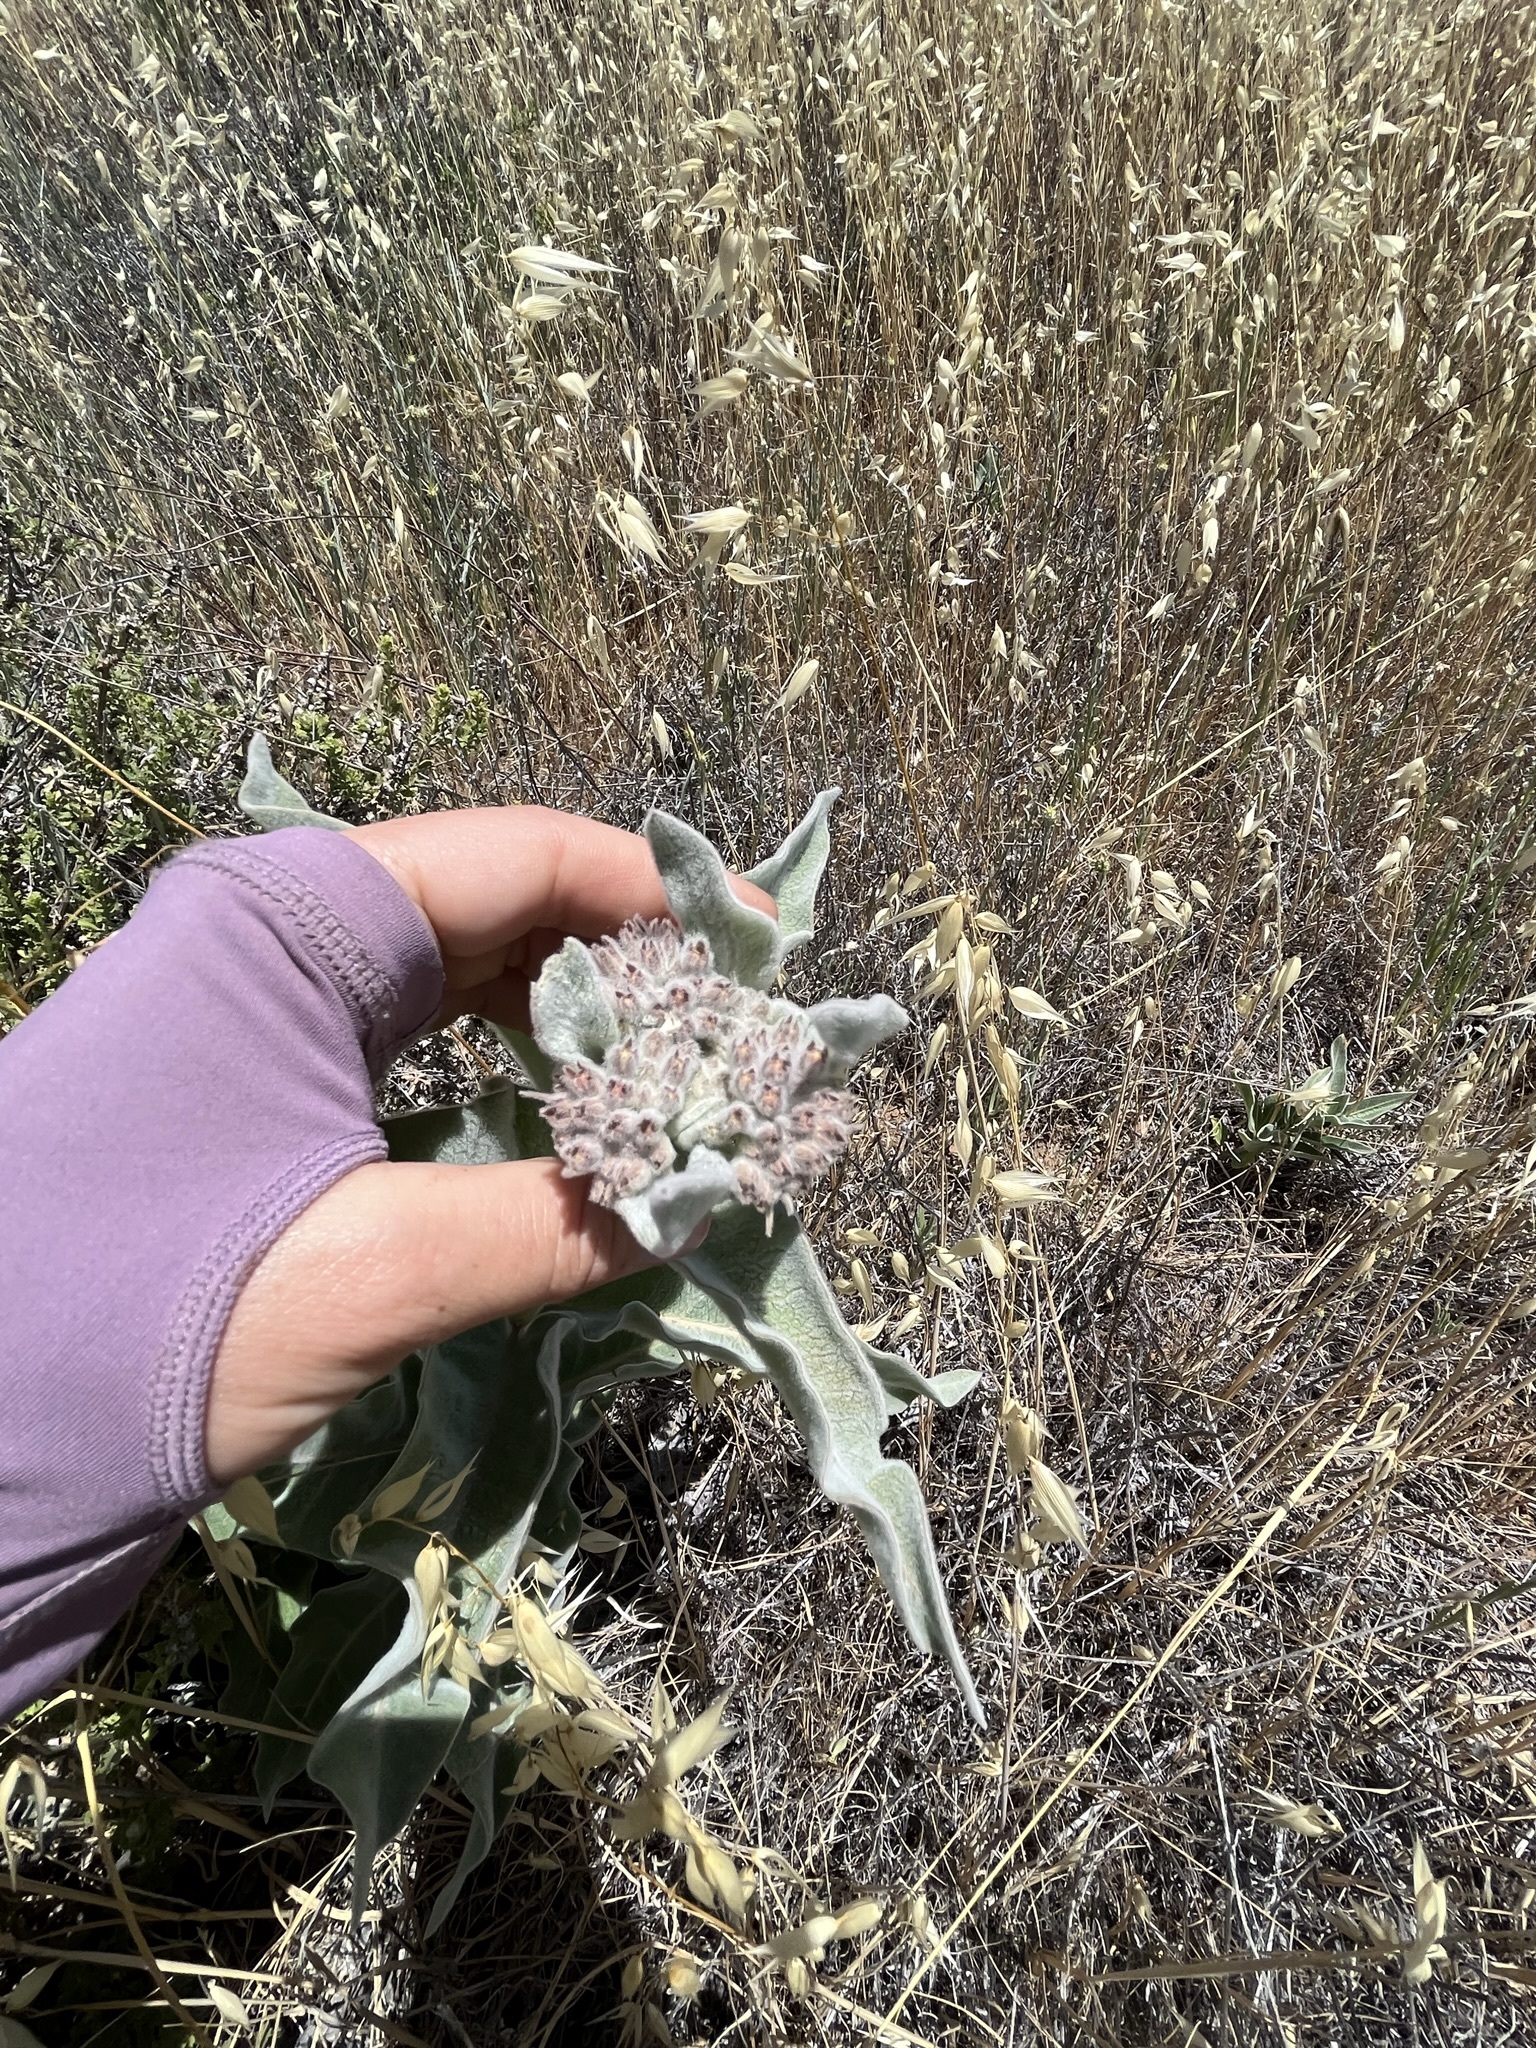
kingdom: Plantae
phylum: Tracheophyta
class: Magnoliopsida
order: Gentianales
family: Apocynaceae
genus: Asclepias
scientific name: Asclepias eriocarpa
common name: Indian milkweed
